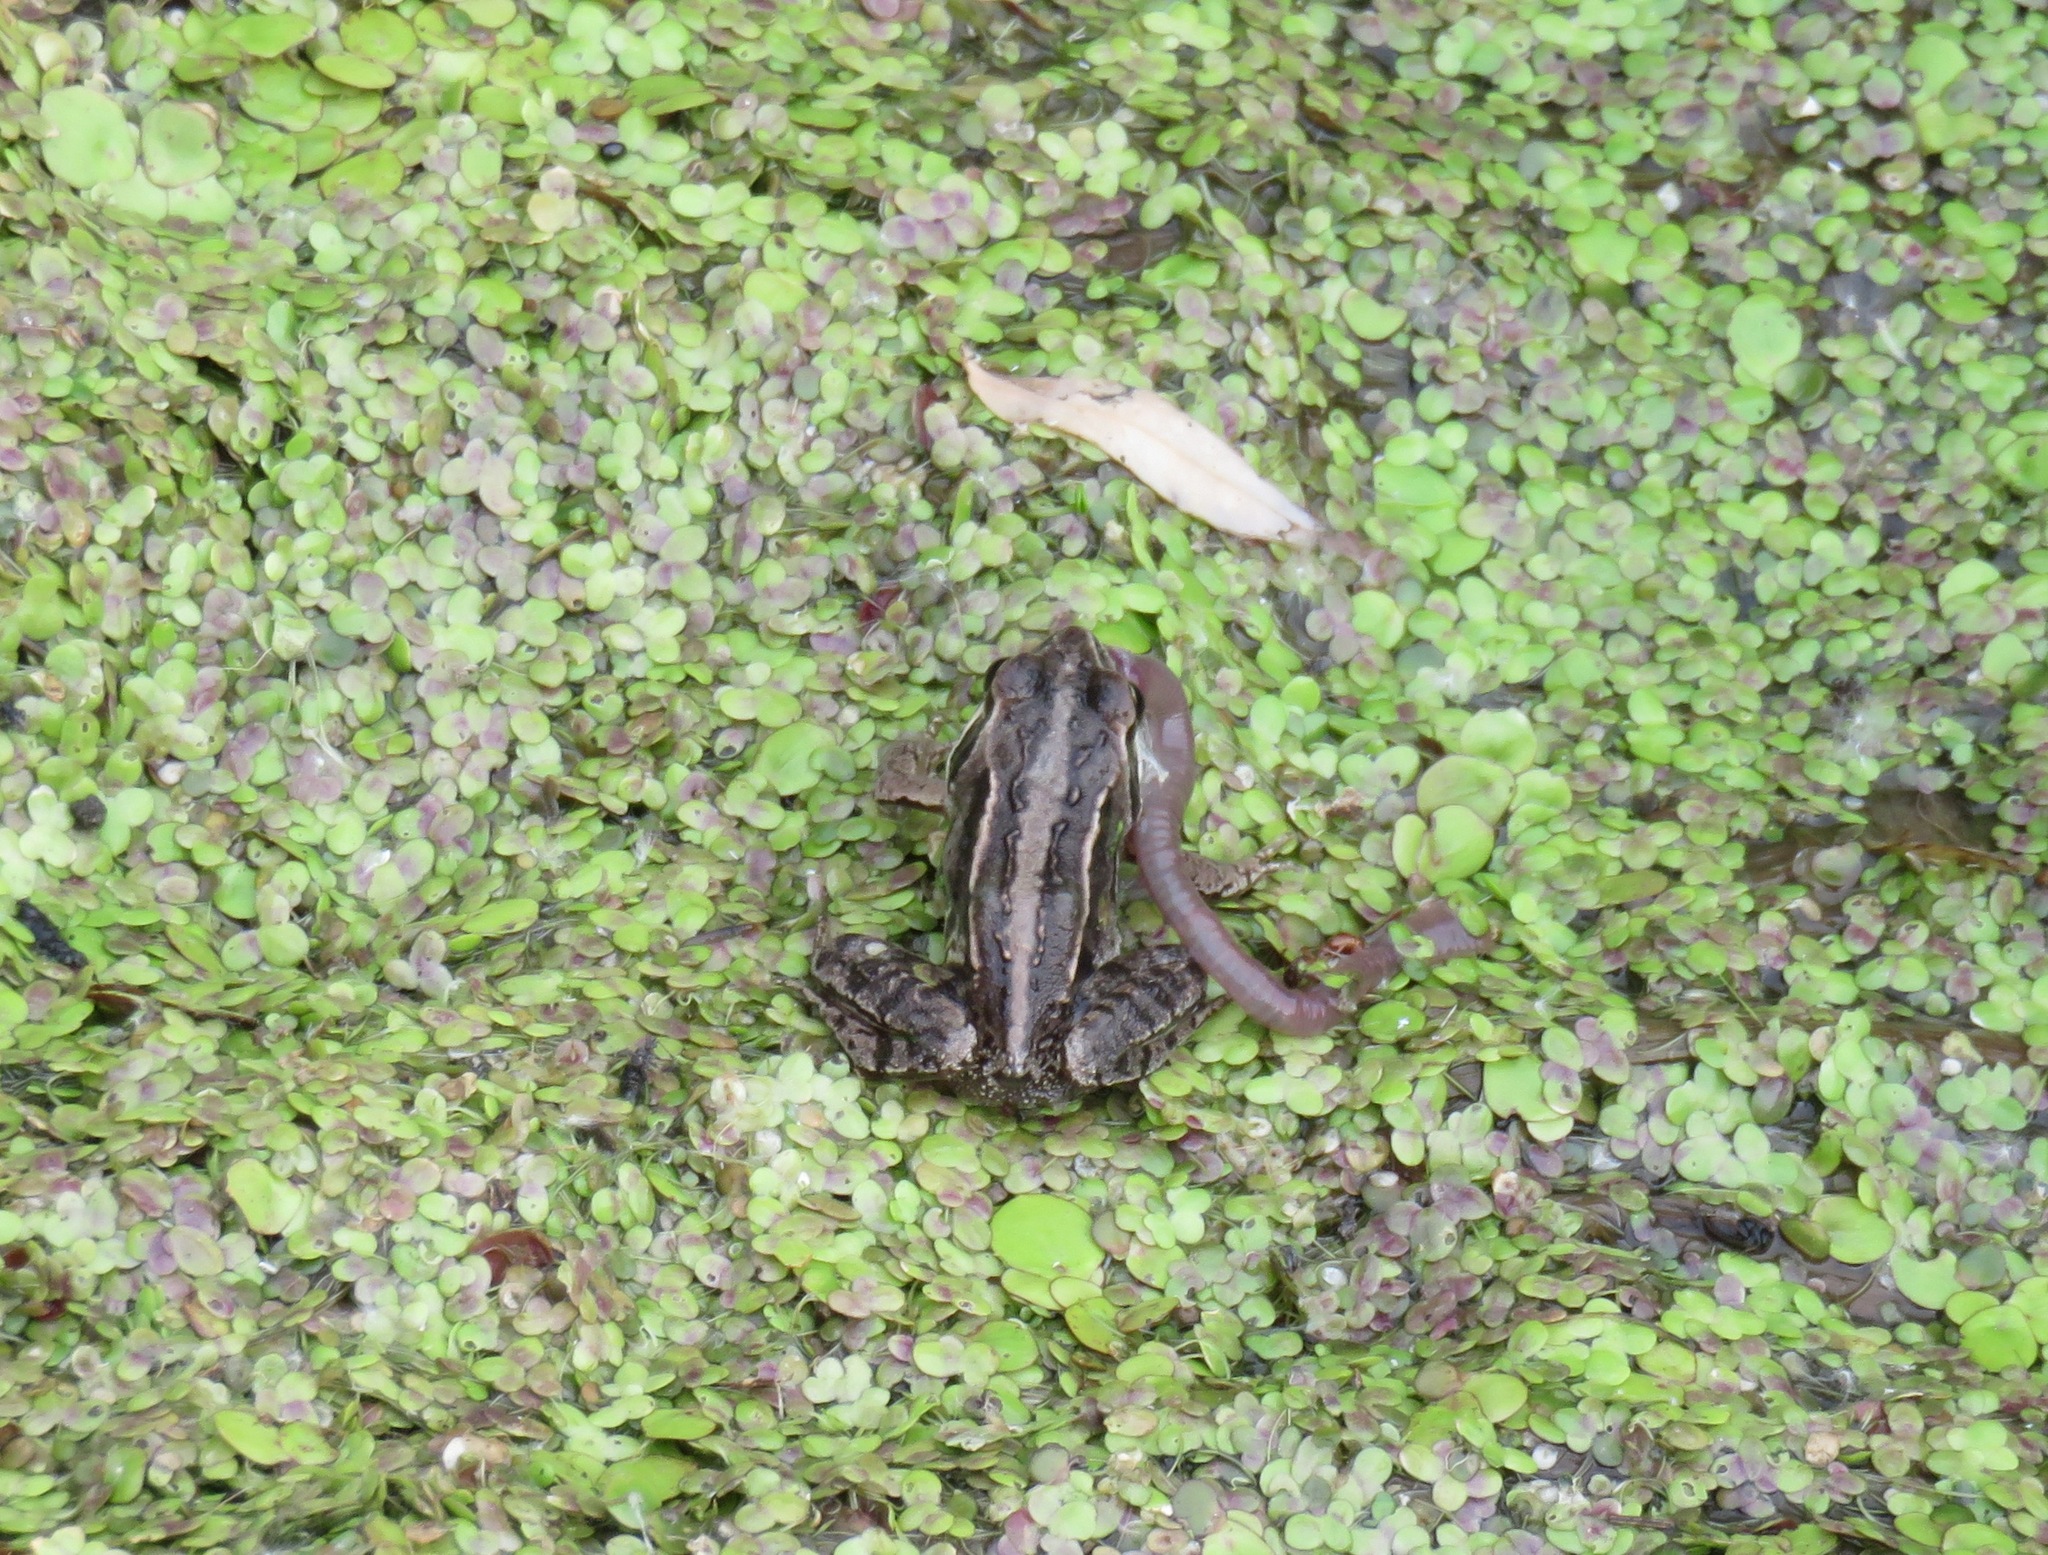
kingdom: Animalia
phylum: Chordata
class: Amphibia
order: Anura
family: Ranidae
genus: Rana
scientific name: Rana arvalis
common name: Moor frog
